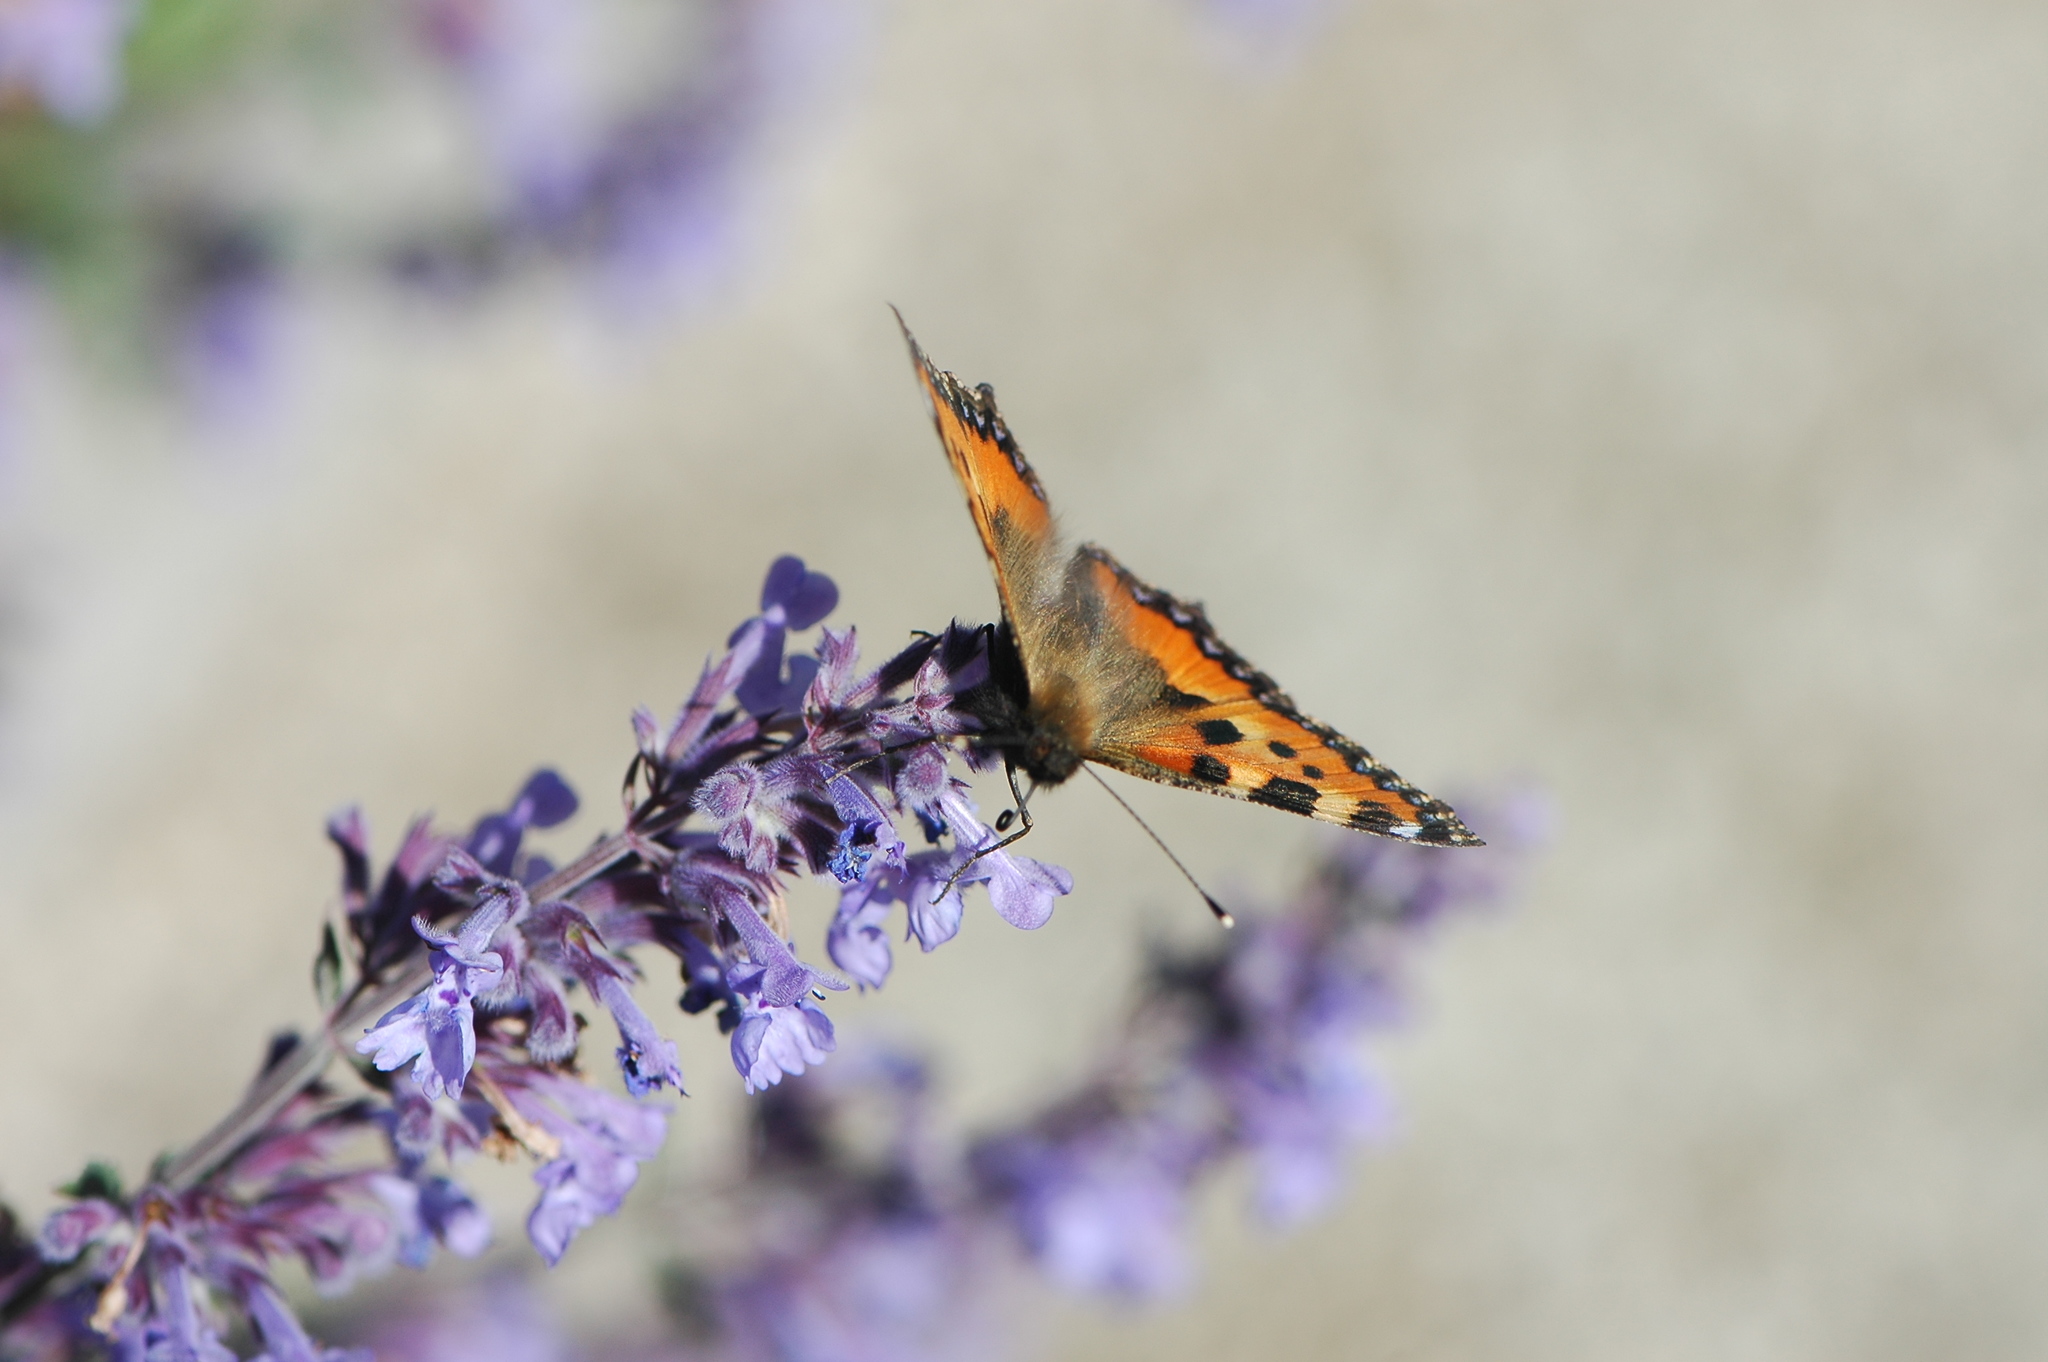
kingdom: Animalia
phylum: Arthropoda
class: Insecta
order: Lepidoptera
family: Nymphalidae
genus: Aglais
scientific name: Aglais urticae
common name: Small tortoiseshell
